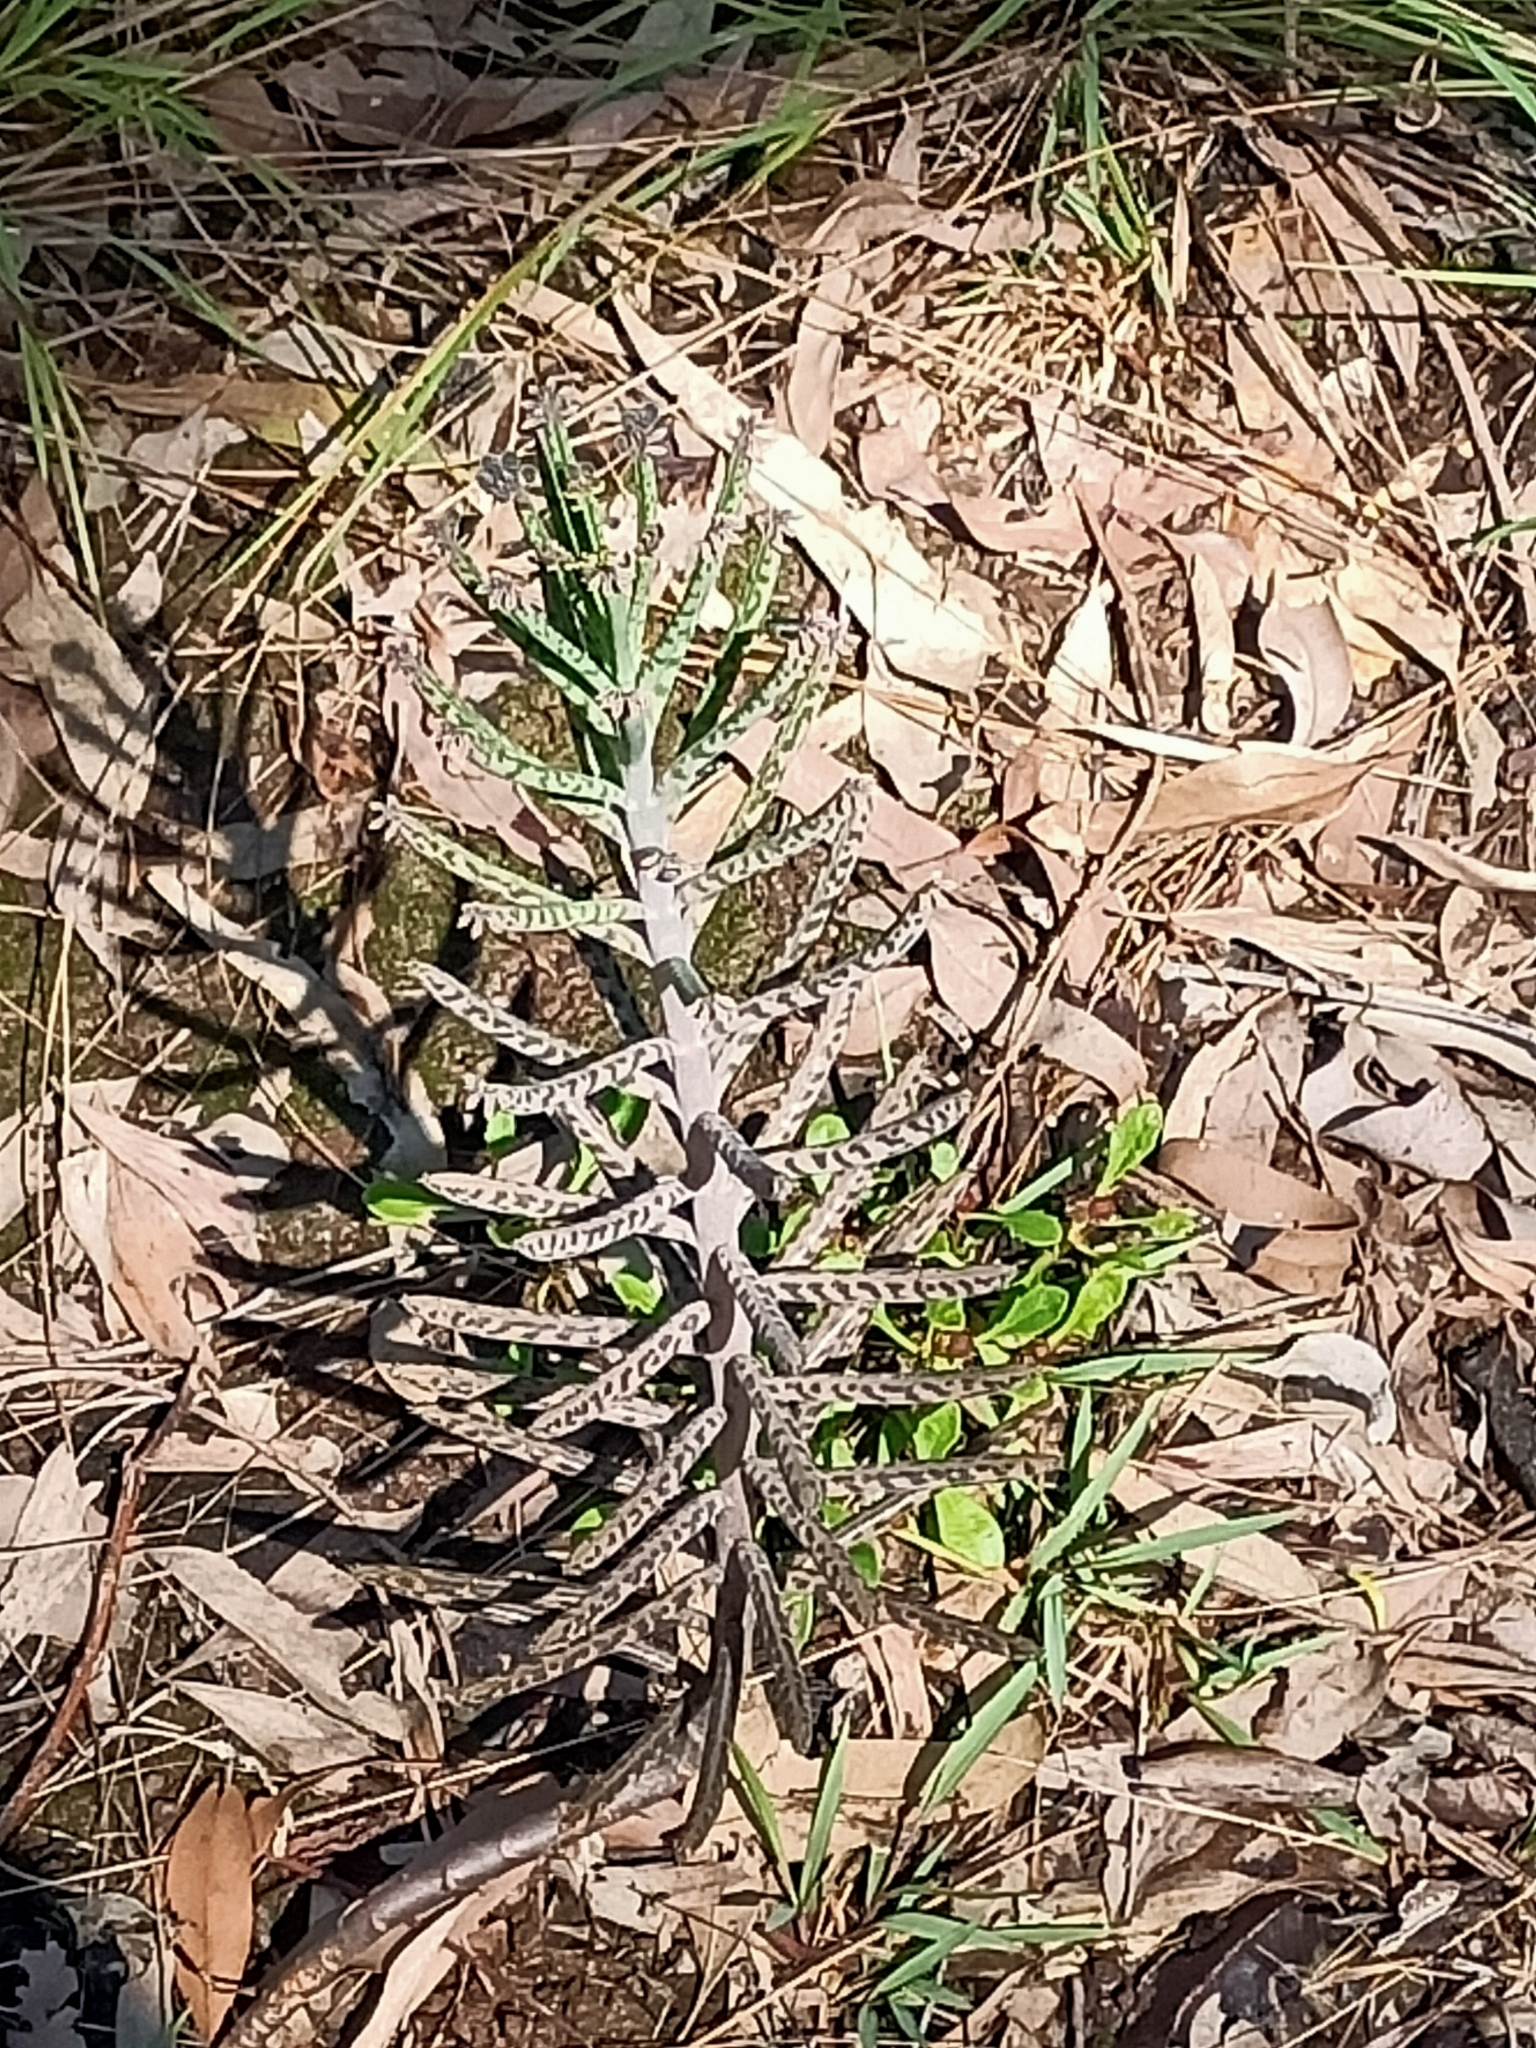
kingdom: Plantae
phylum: Tracheophyta
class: Magnoliopsida
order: Saxifragales
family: Crassulaceae
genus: Kalanchoe
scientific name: Kalanchoe delagoensis
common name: Chandelier plant
